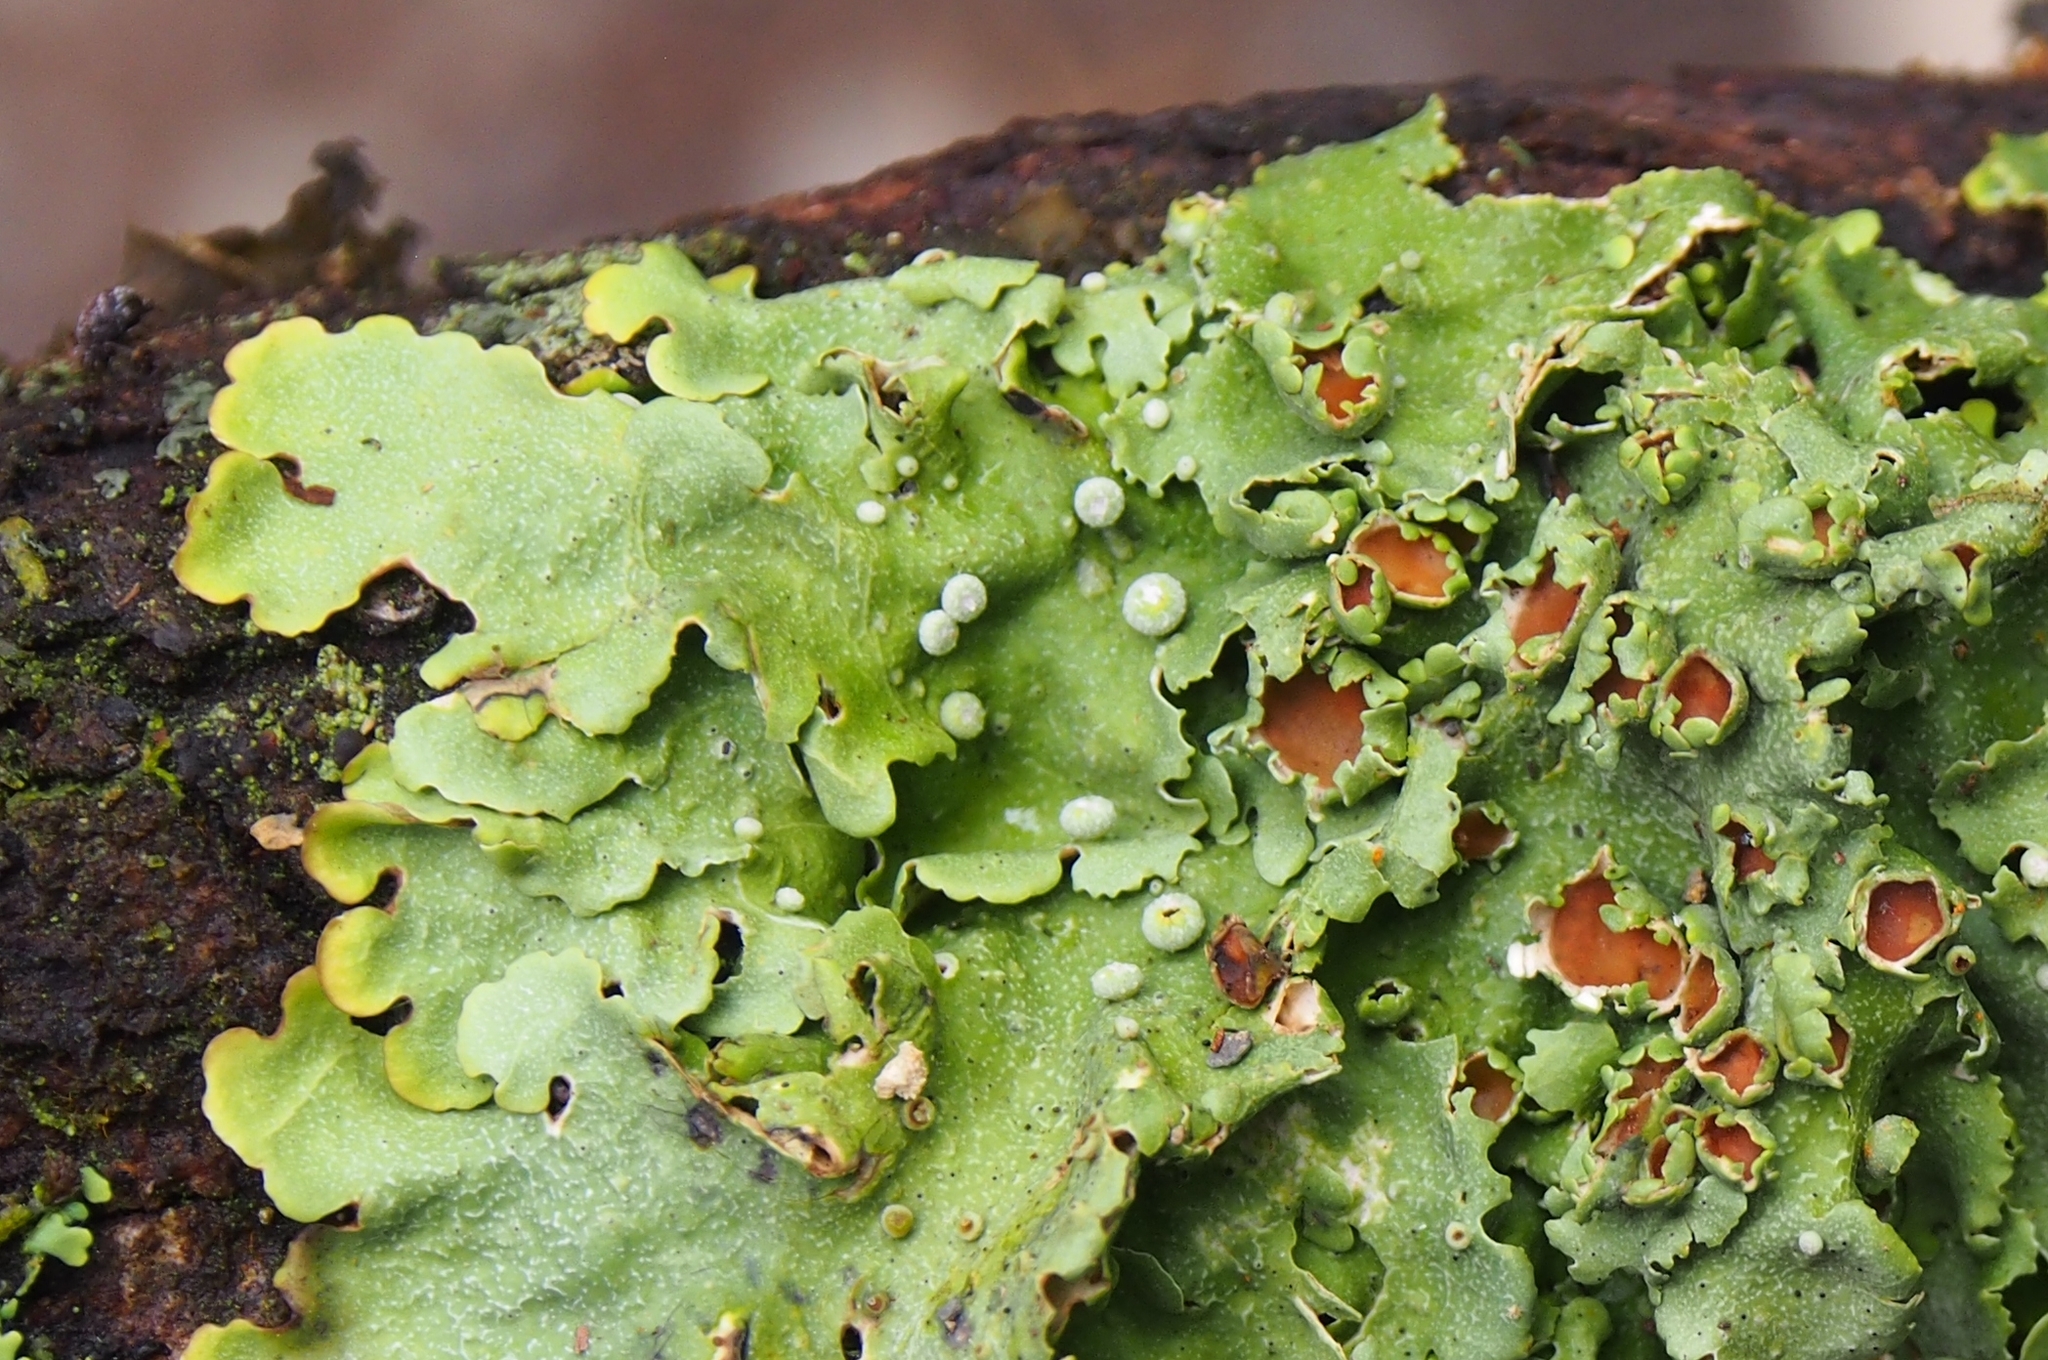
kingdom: Fungi
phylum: Ascomycota
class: Lecanoromycetes
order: Peltigerales
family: Lobariaceae
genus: Lobariella
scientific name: Lobariella subcrenulata
